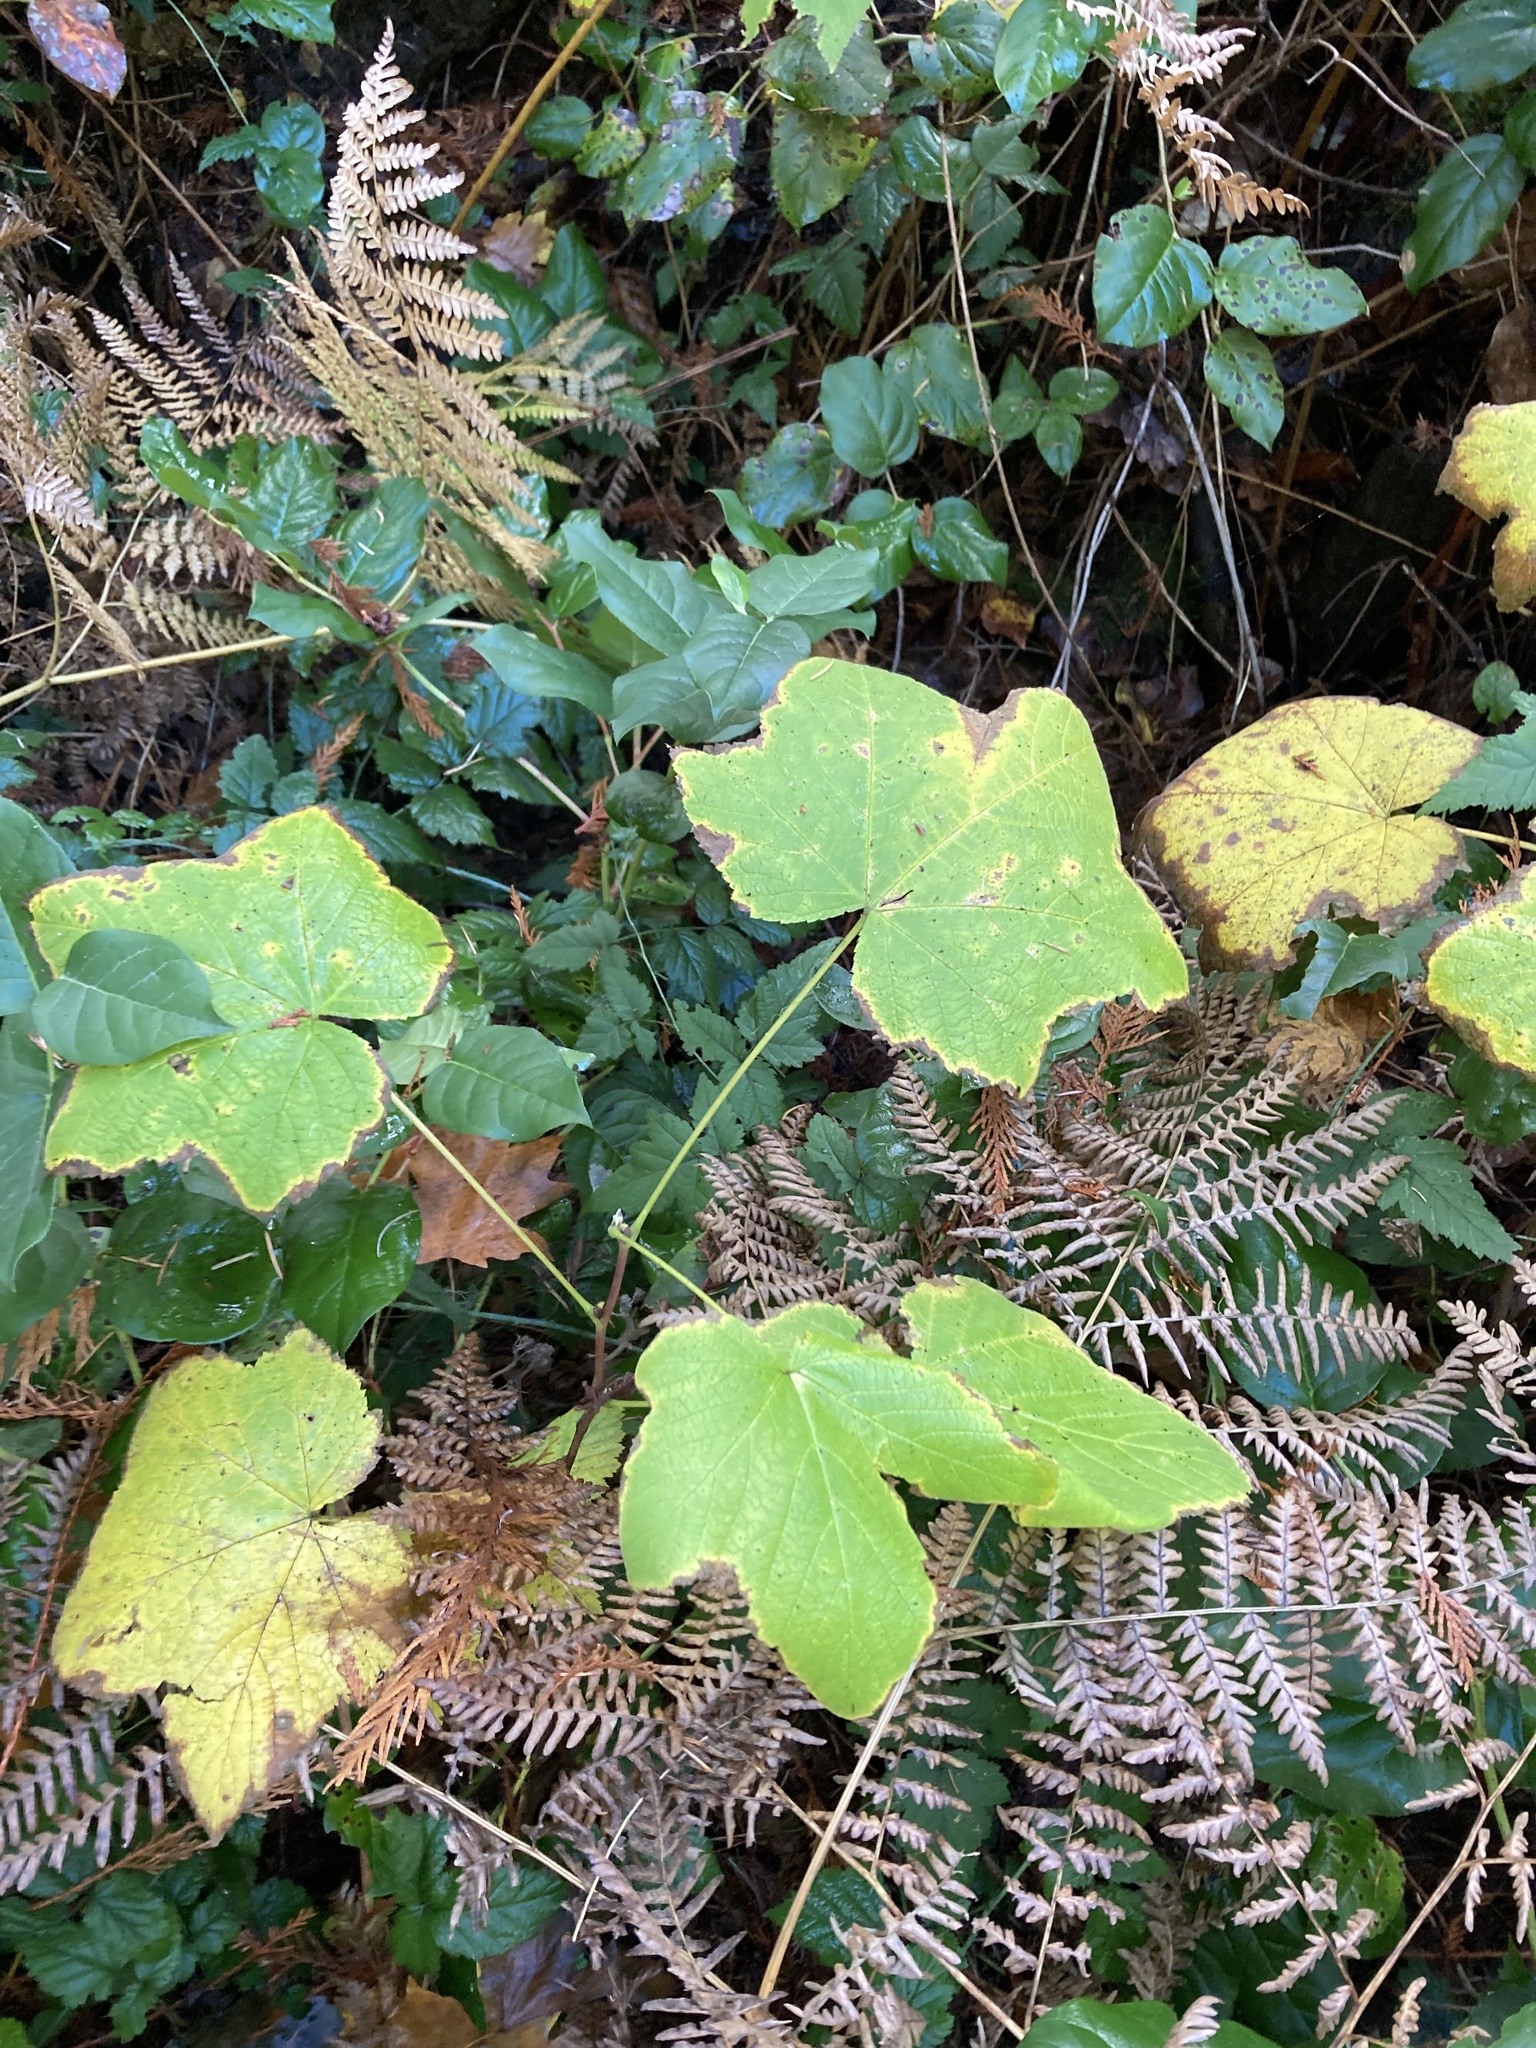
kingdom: Plantae
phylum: Tracheophyta
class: Magnoliopsida
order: Rosales
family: Rosaceae
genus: Rubus
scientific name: Rubus parviflorus
